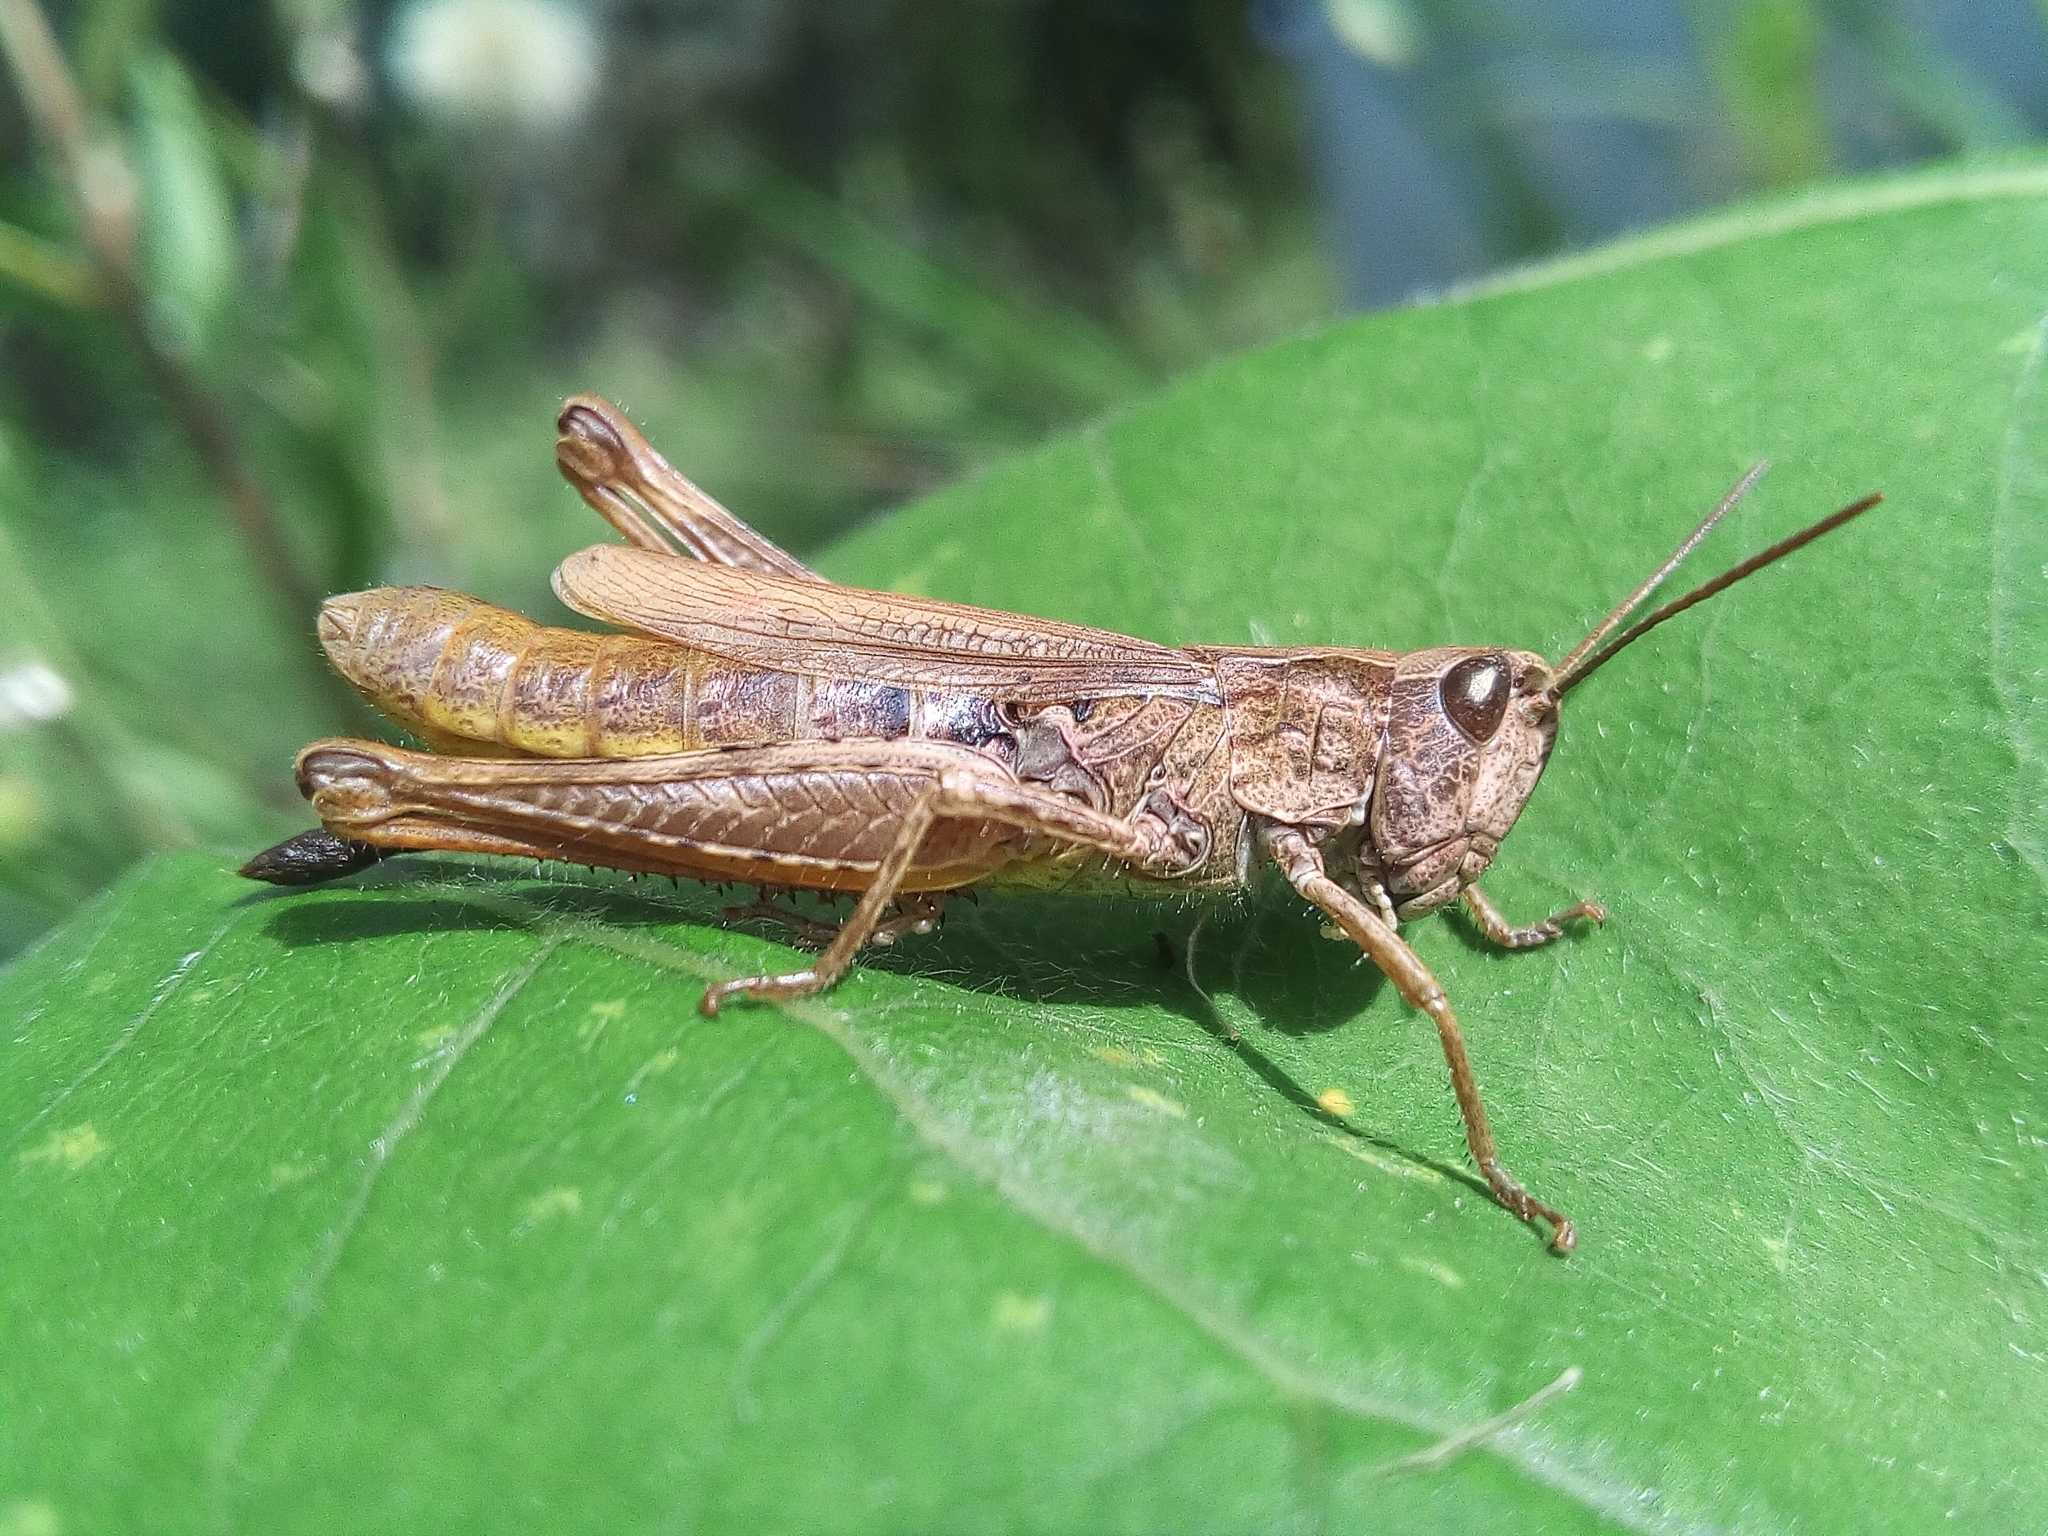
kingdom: Animalia
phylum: Arthropoda
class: Insecta
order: Orthoptera
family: Acrididae
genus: Chorthippus
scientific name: Chorthippus apricarius
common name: Upland field grasshopper
